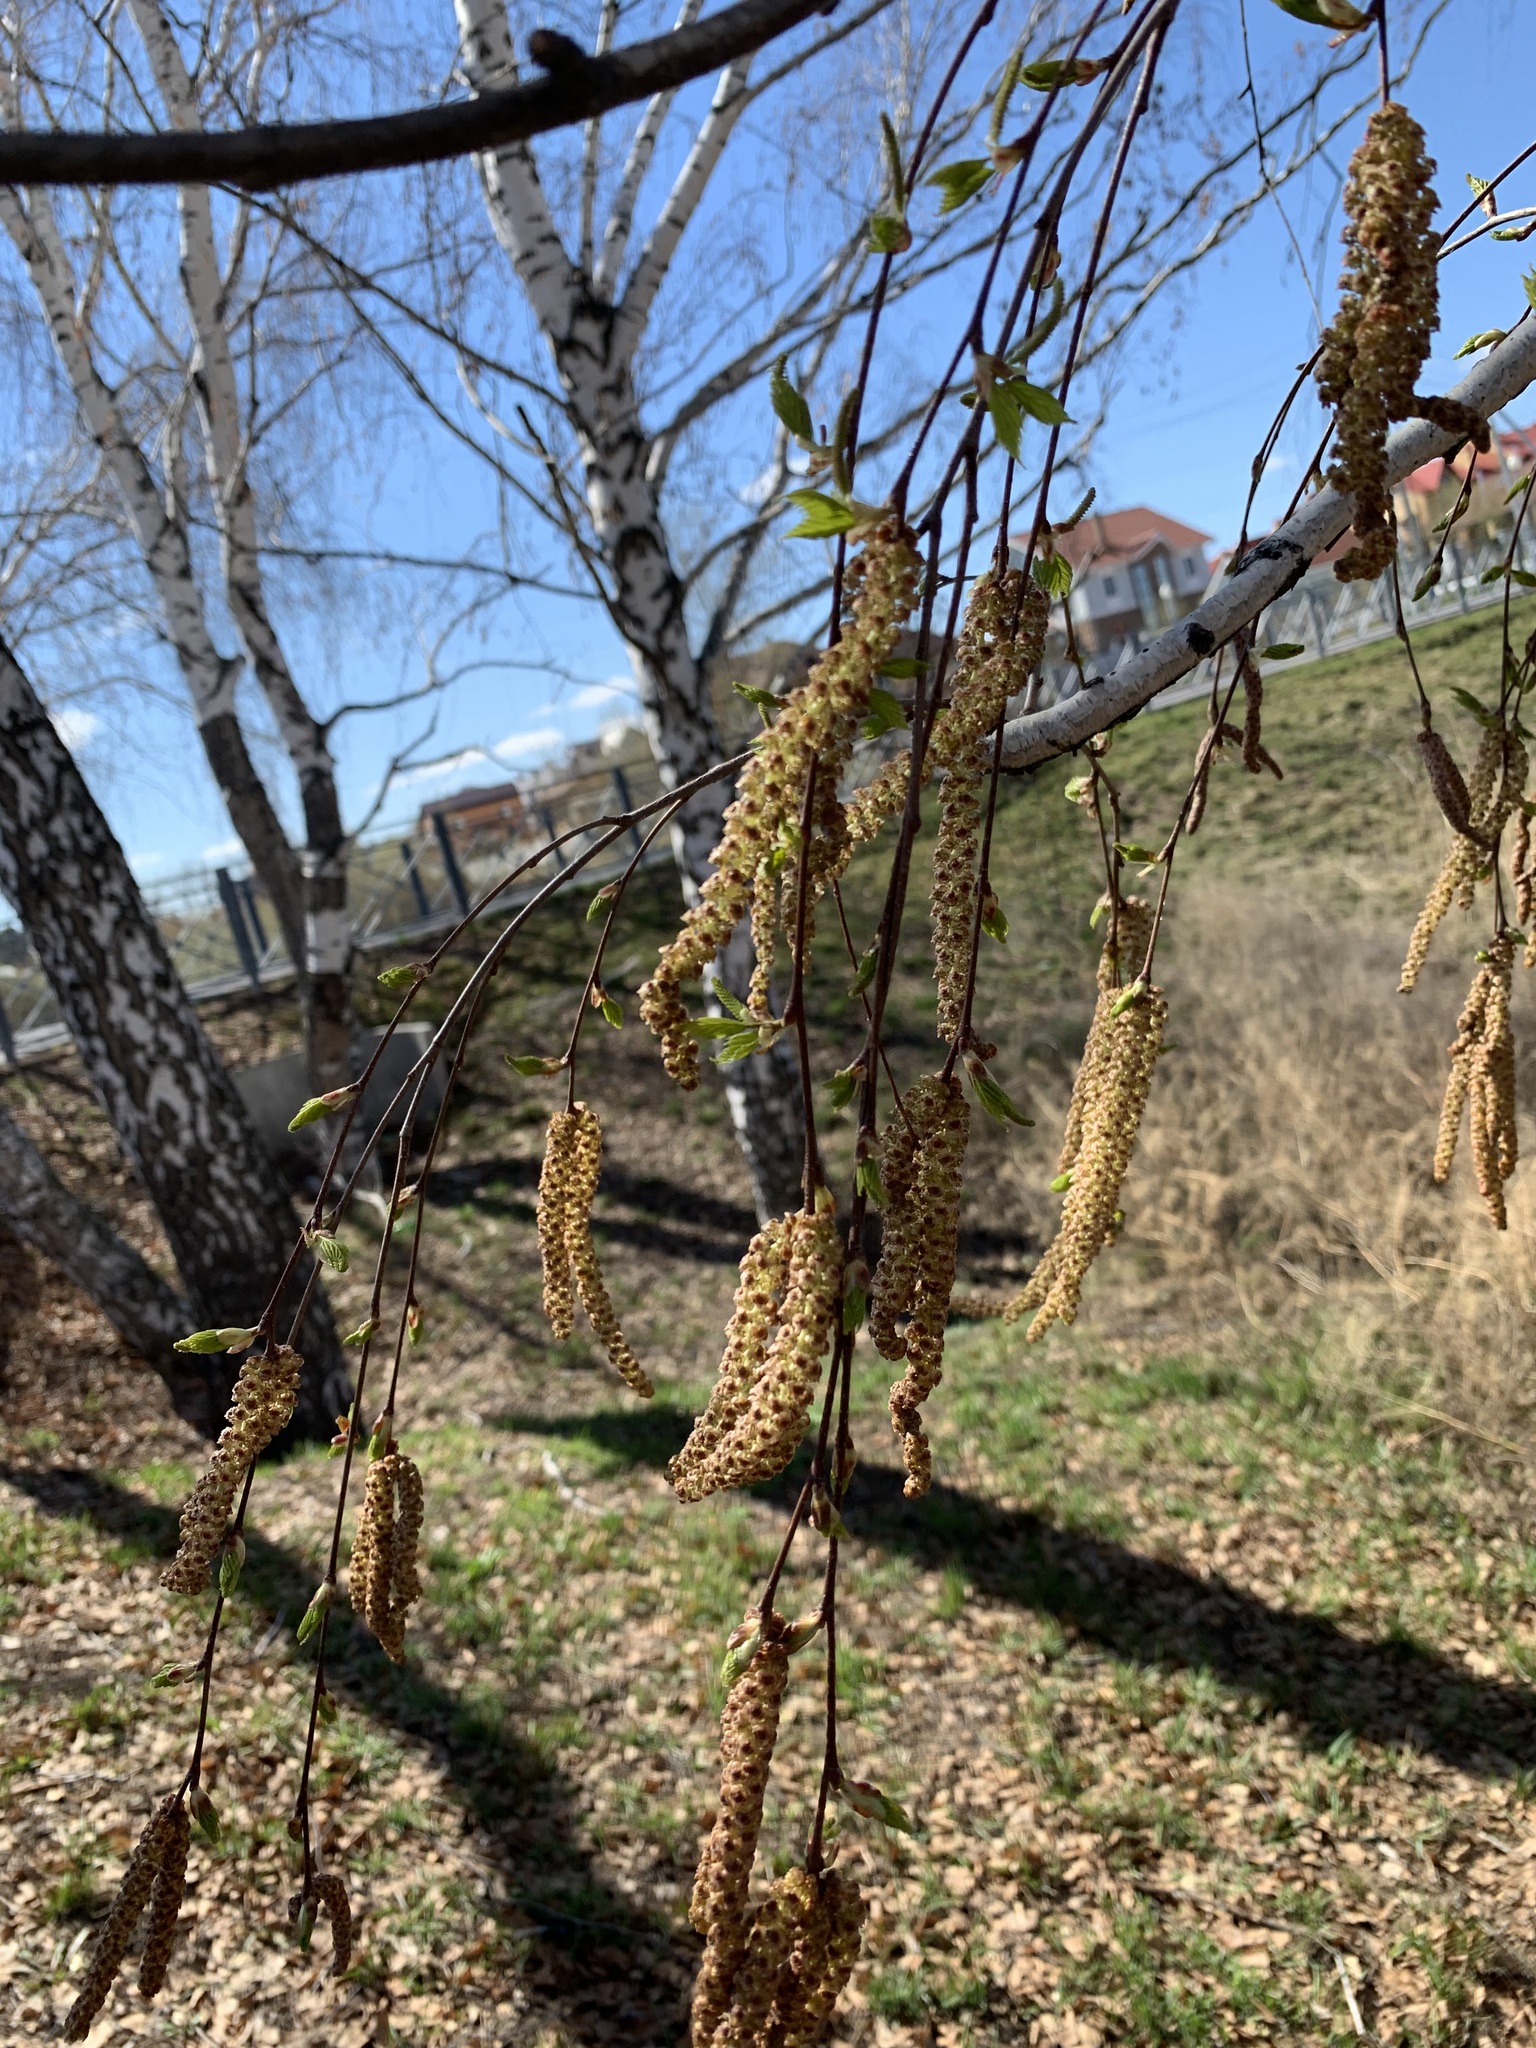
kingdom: Plantae
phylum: Tracheophyta
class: Magnoliopsida
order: Fagales
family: Betulaceae
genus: Betula
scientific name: Betula pendula
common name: Silver birch
